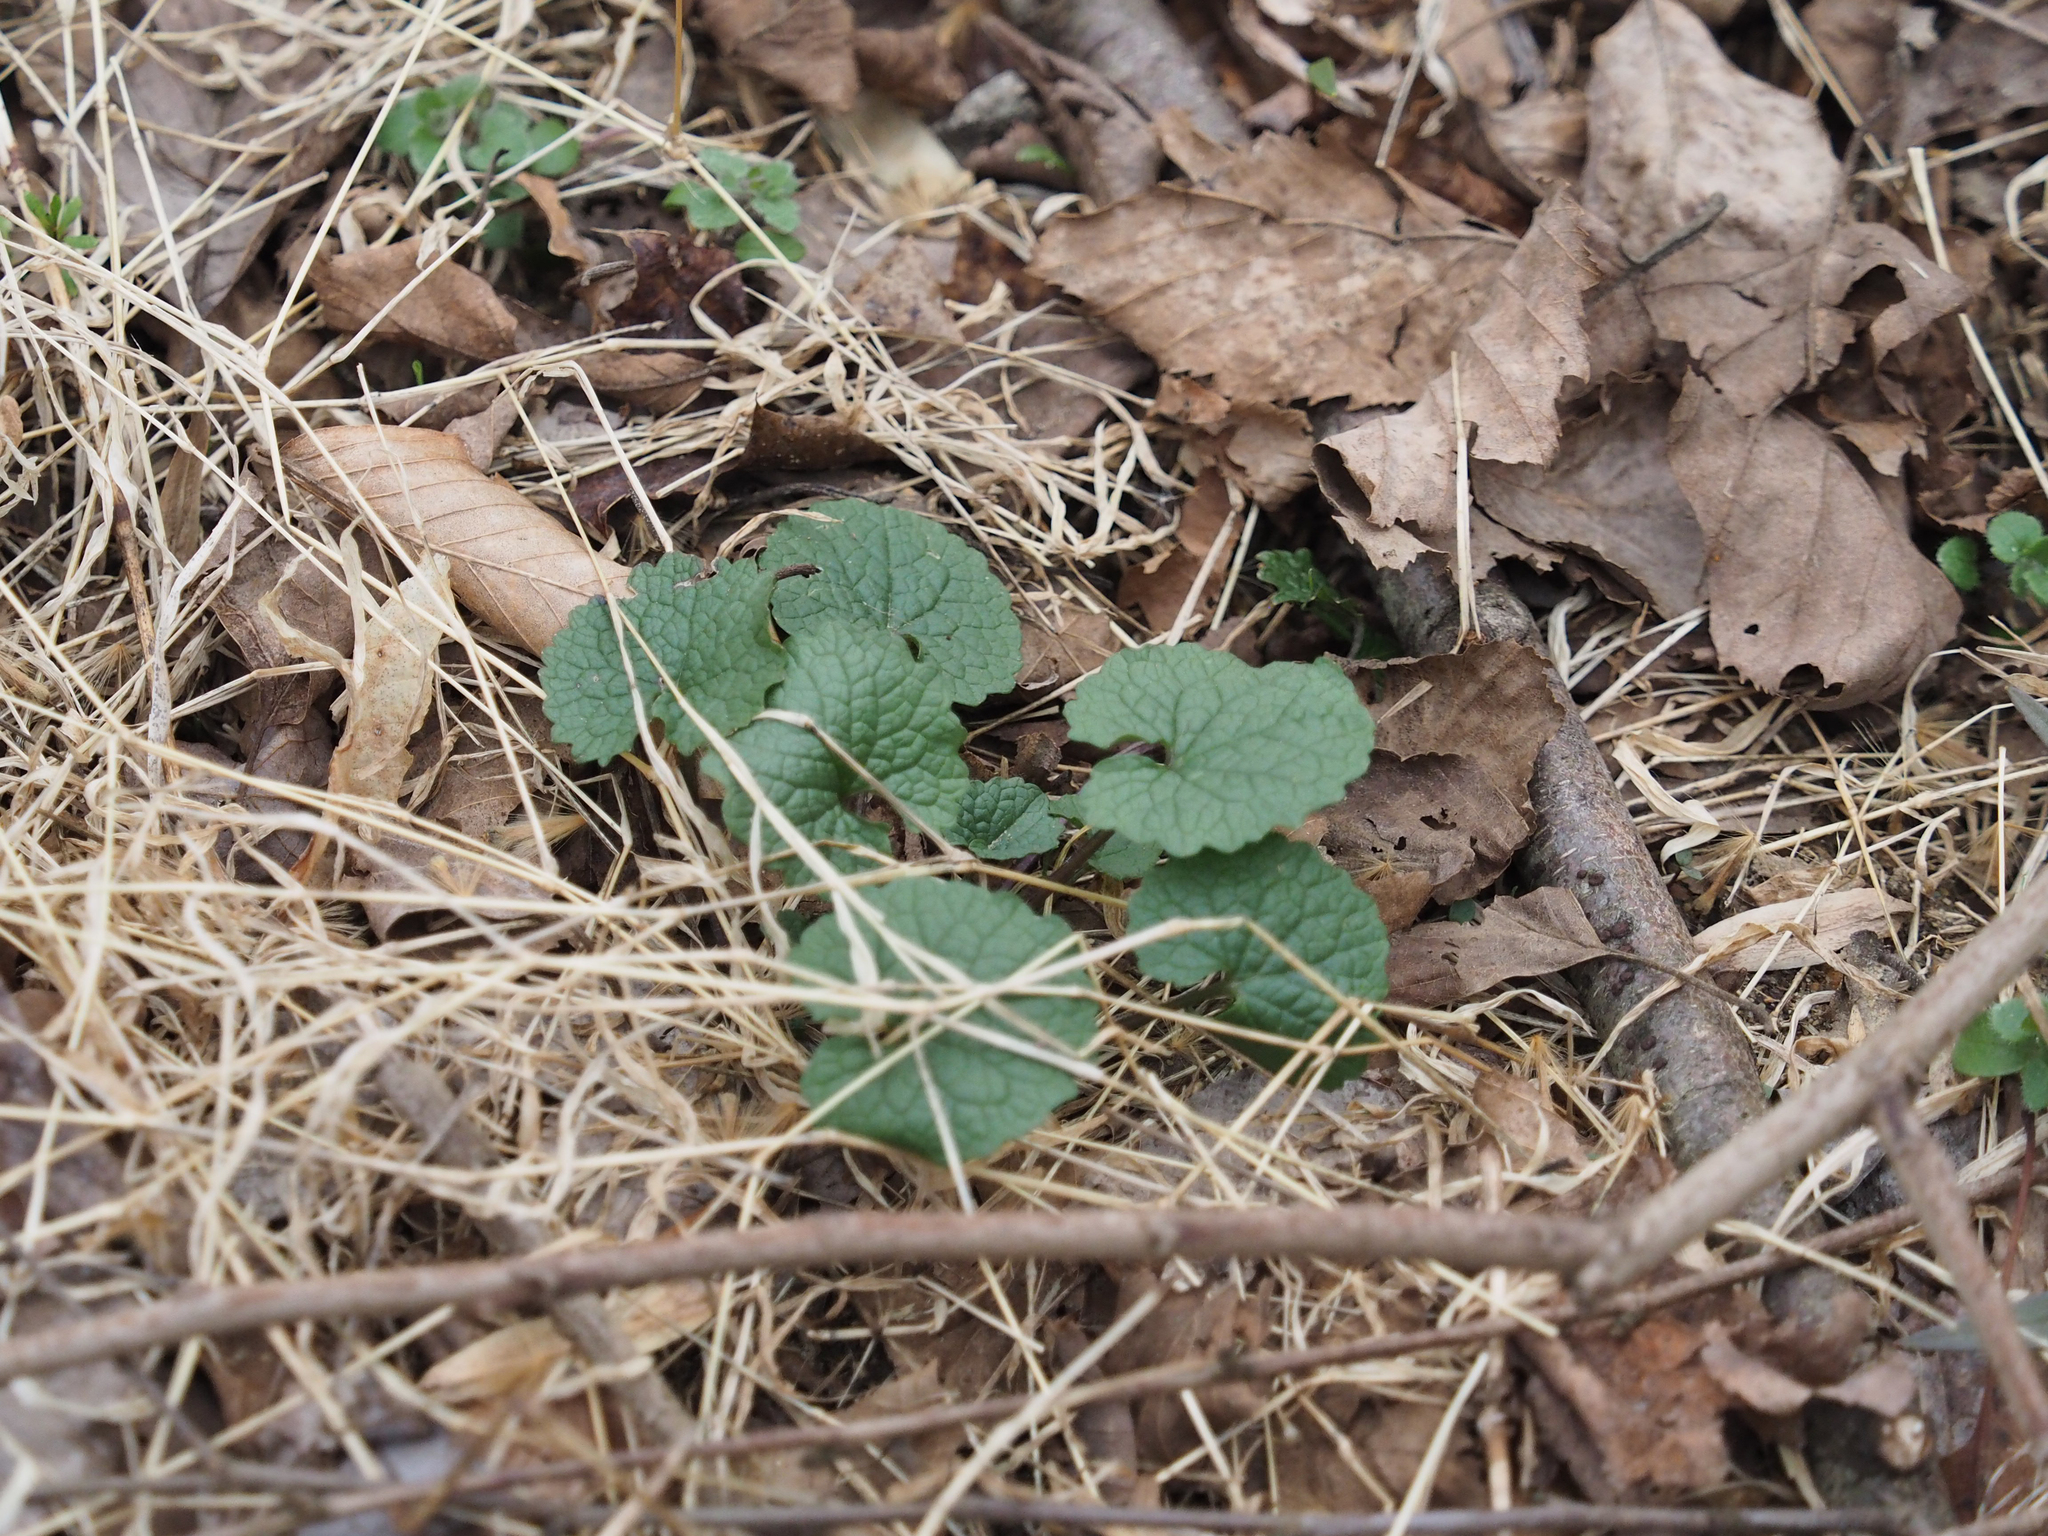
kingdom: Plantae
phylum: Tracheophyta
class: Magnoliopsida
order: Lamiales
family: Lamiaceae
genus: Glechoma
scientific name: Glechoma hederacea
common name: Ground ivy
